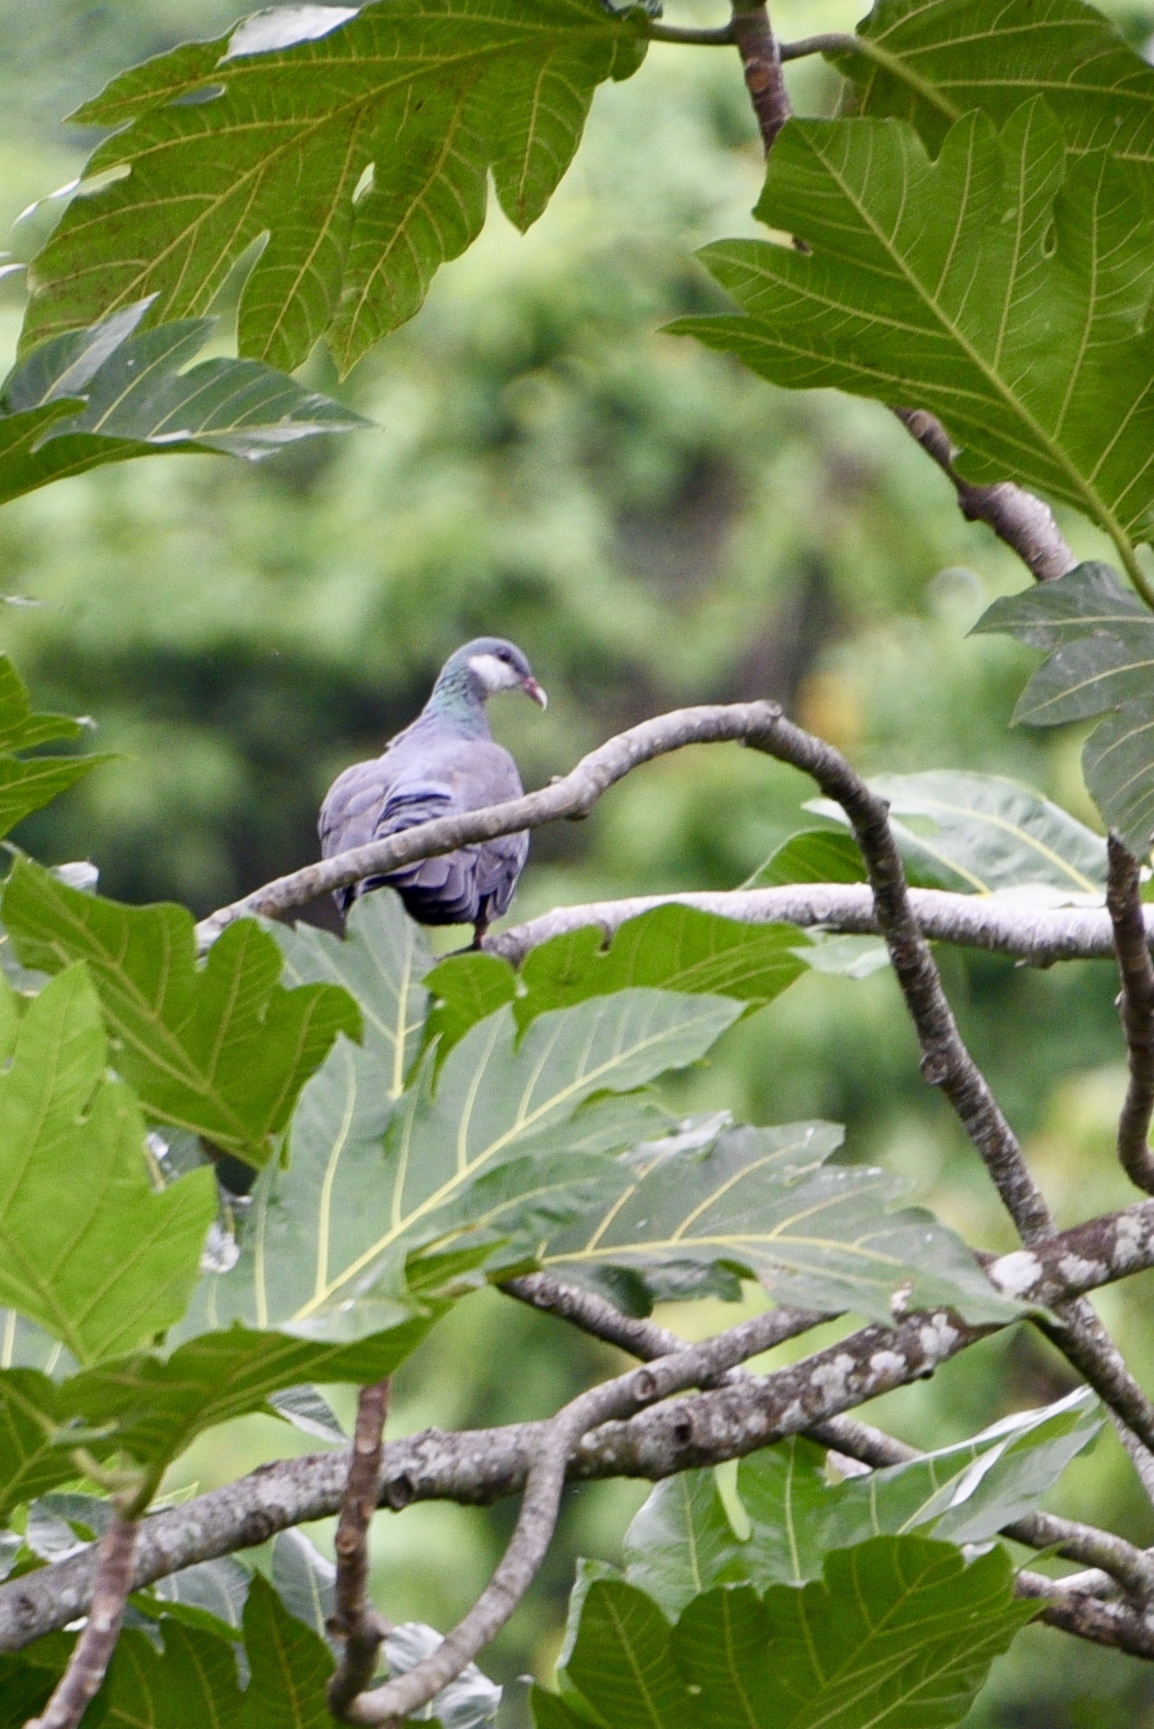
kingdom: Animalia
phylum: Chordata
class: Aves
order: Columbiformes
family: Columbidae
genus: Columba
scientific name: Columba vitiensis
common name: Metallic pigeon
